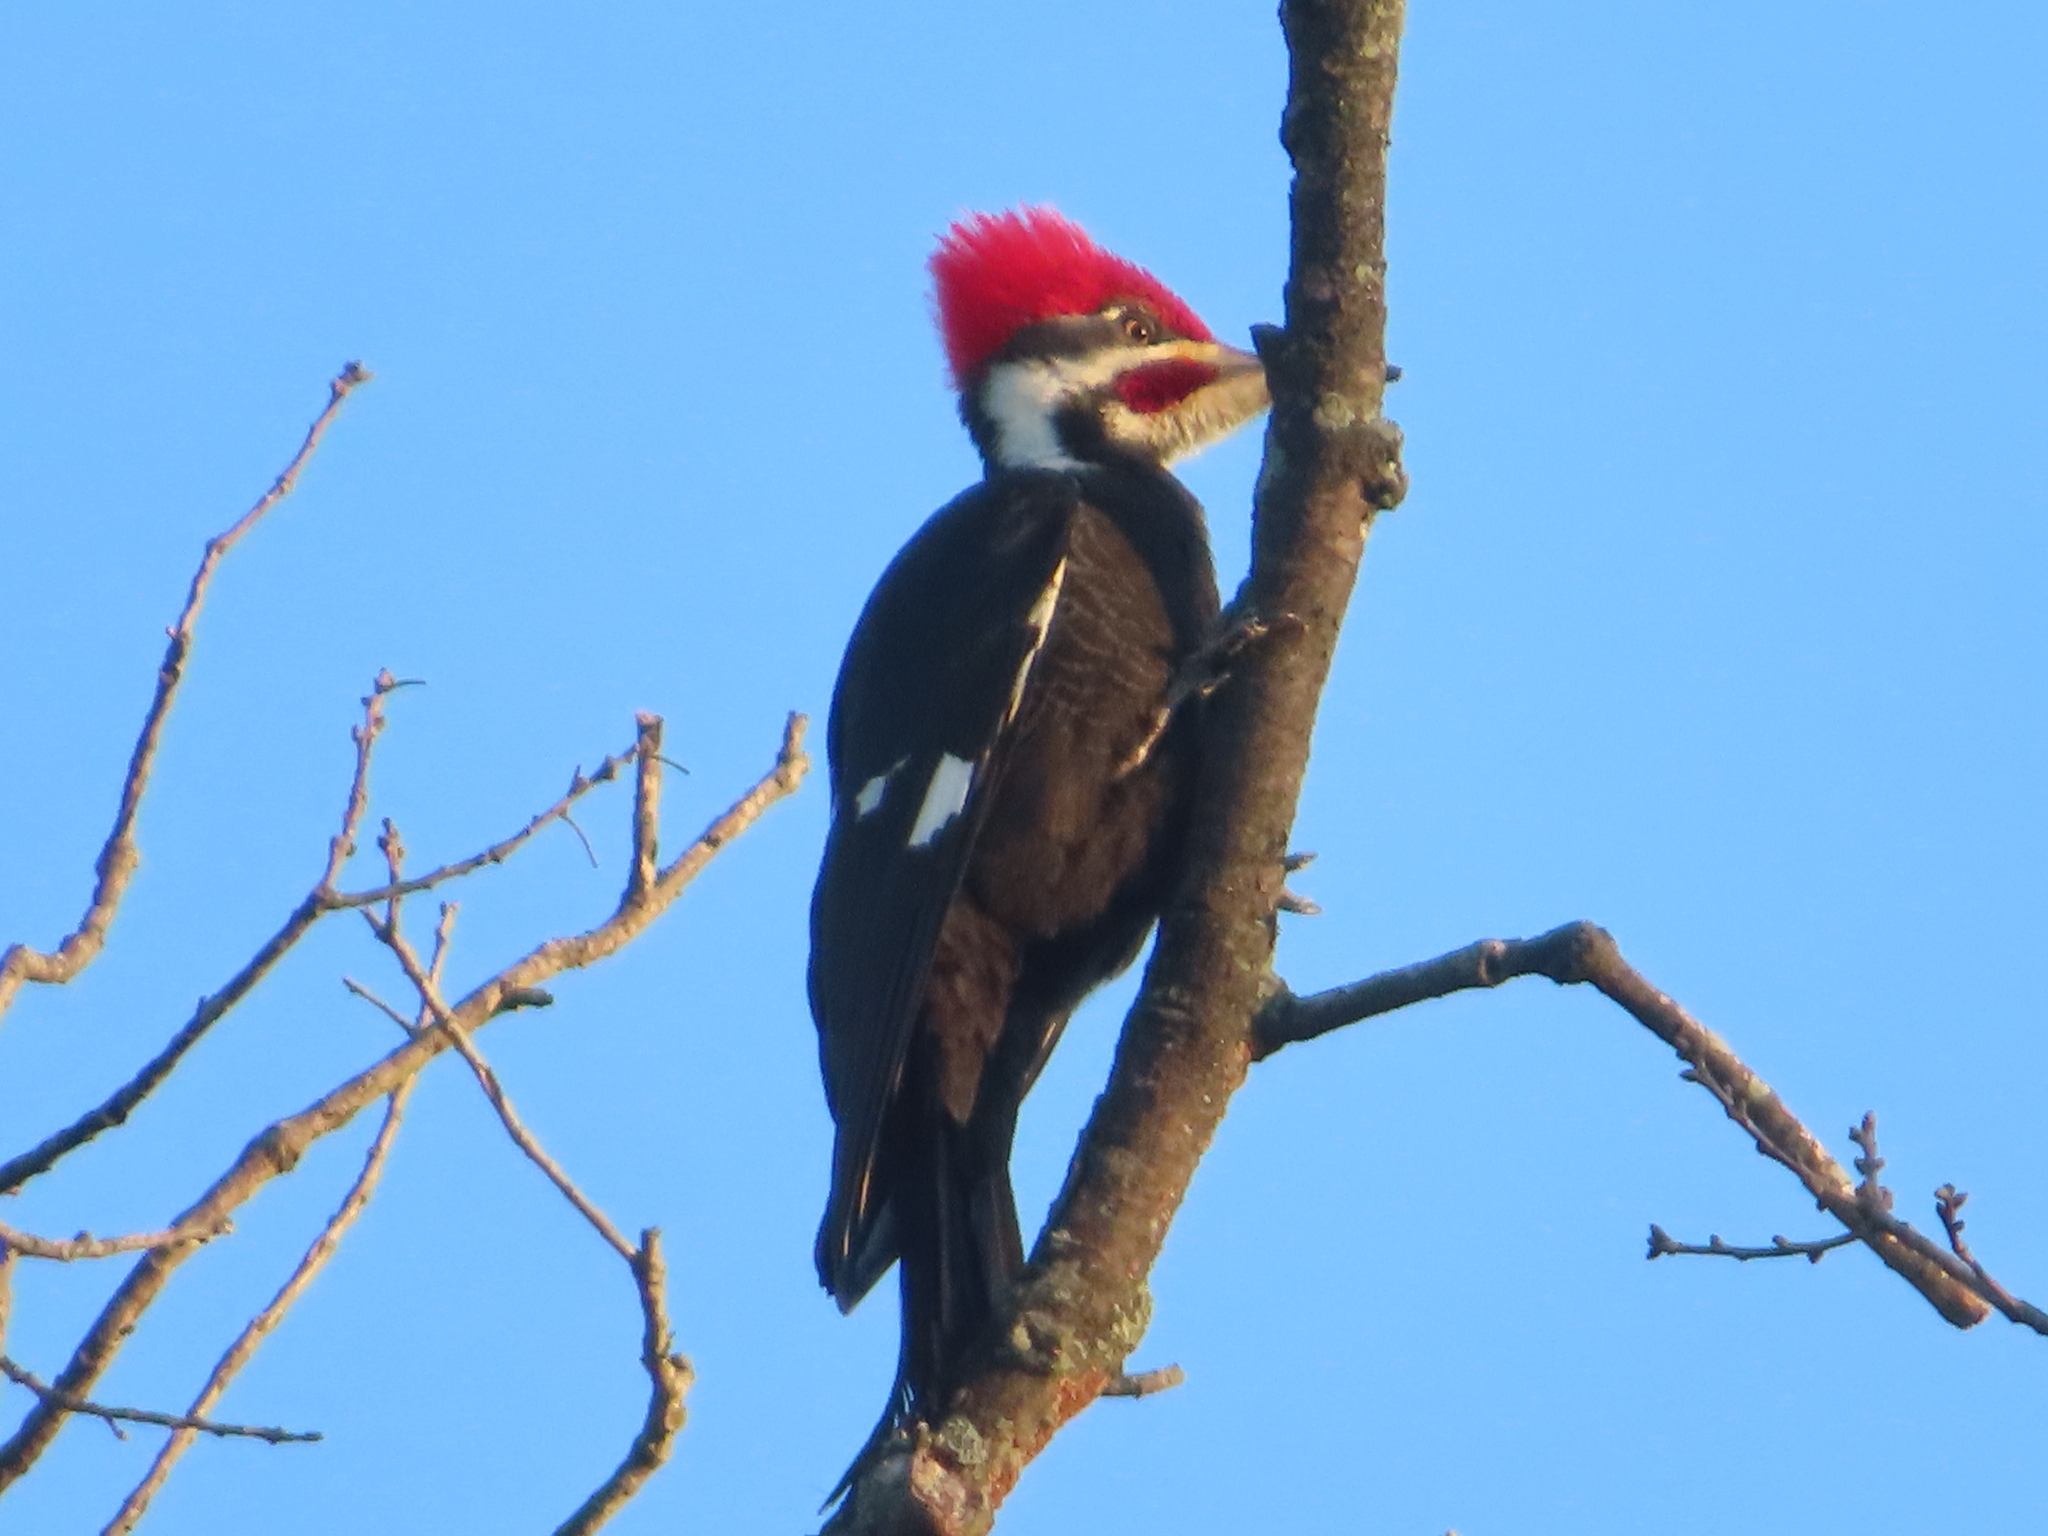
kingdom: Animalia
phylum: Chordata
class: Aves
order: Piciformes
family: Picidae
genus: Dryocopus
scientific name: Dryocopus pileatus
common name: Pileated woodpecker
